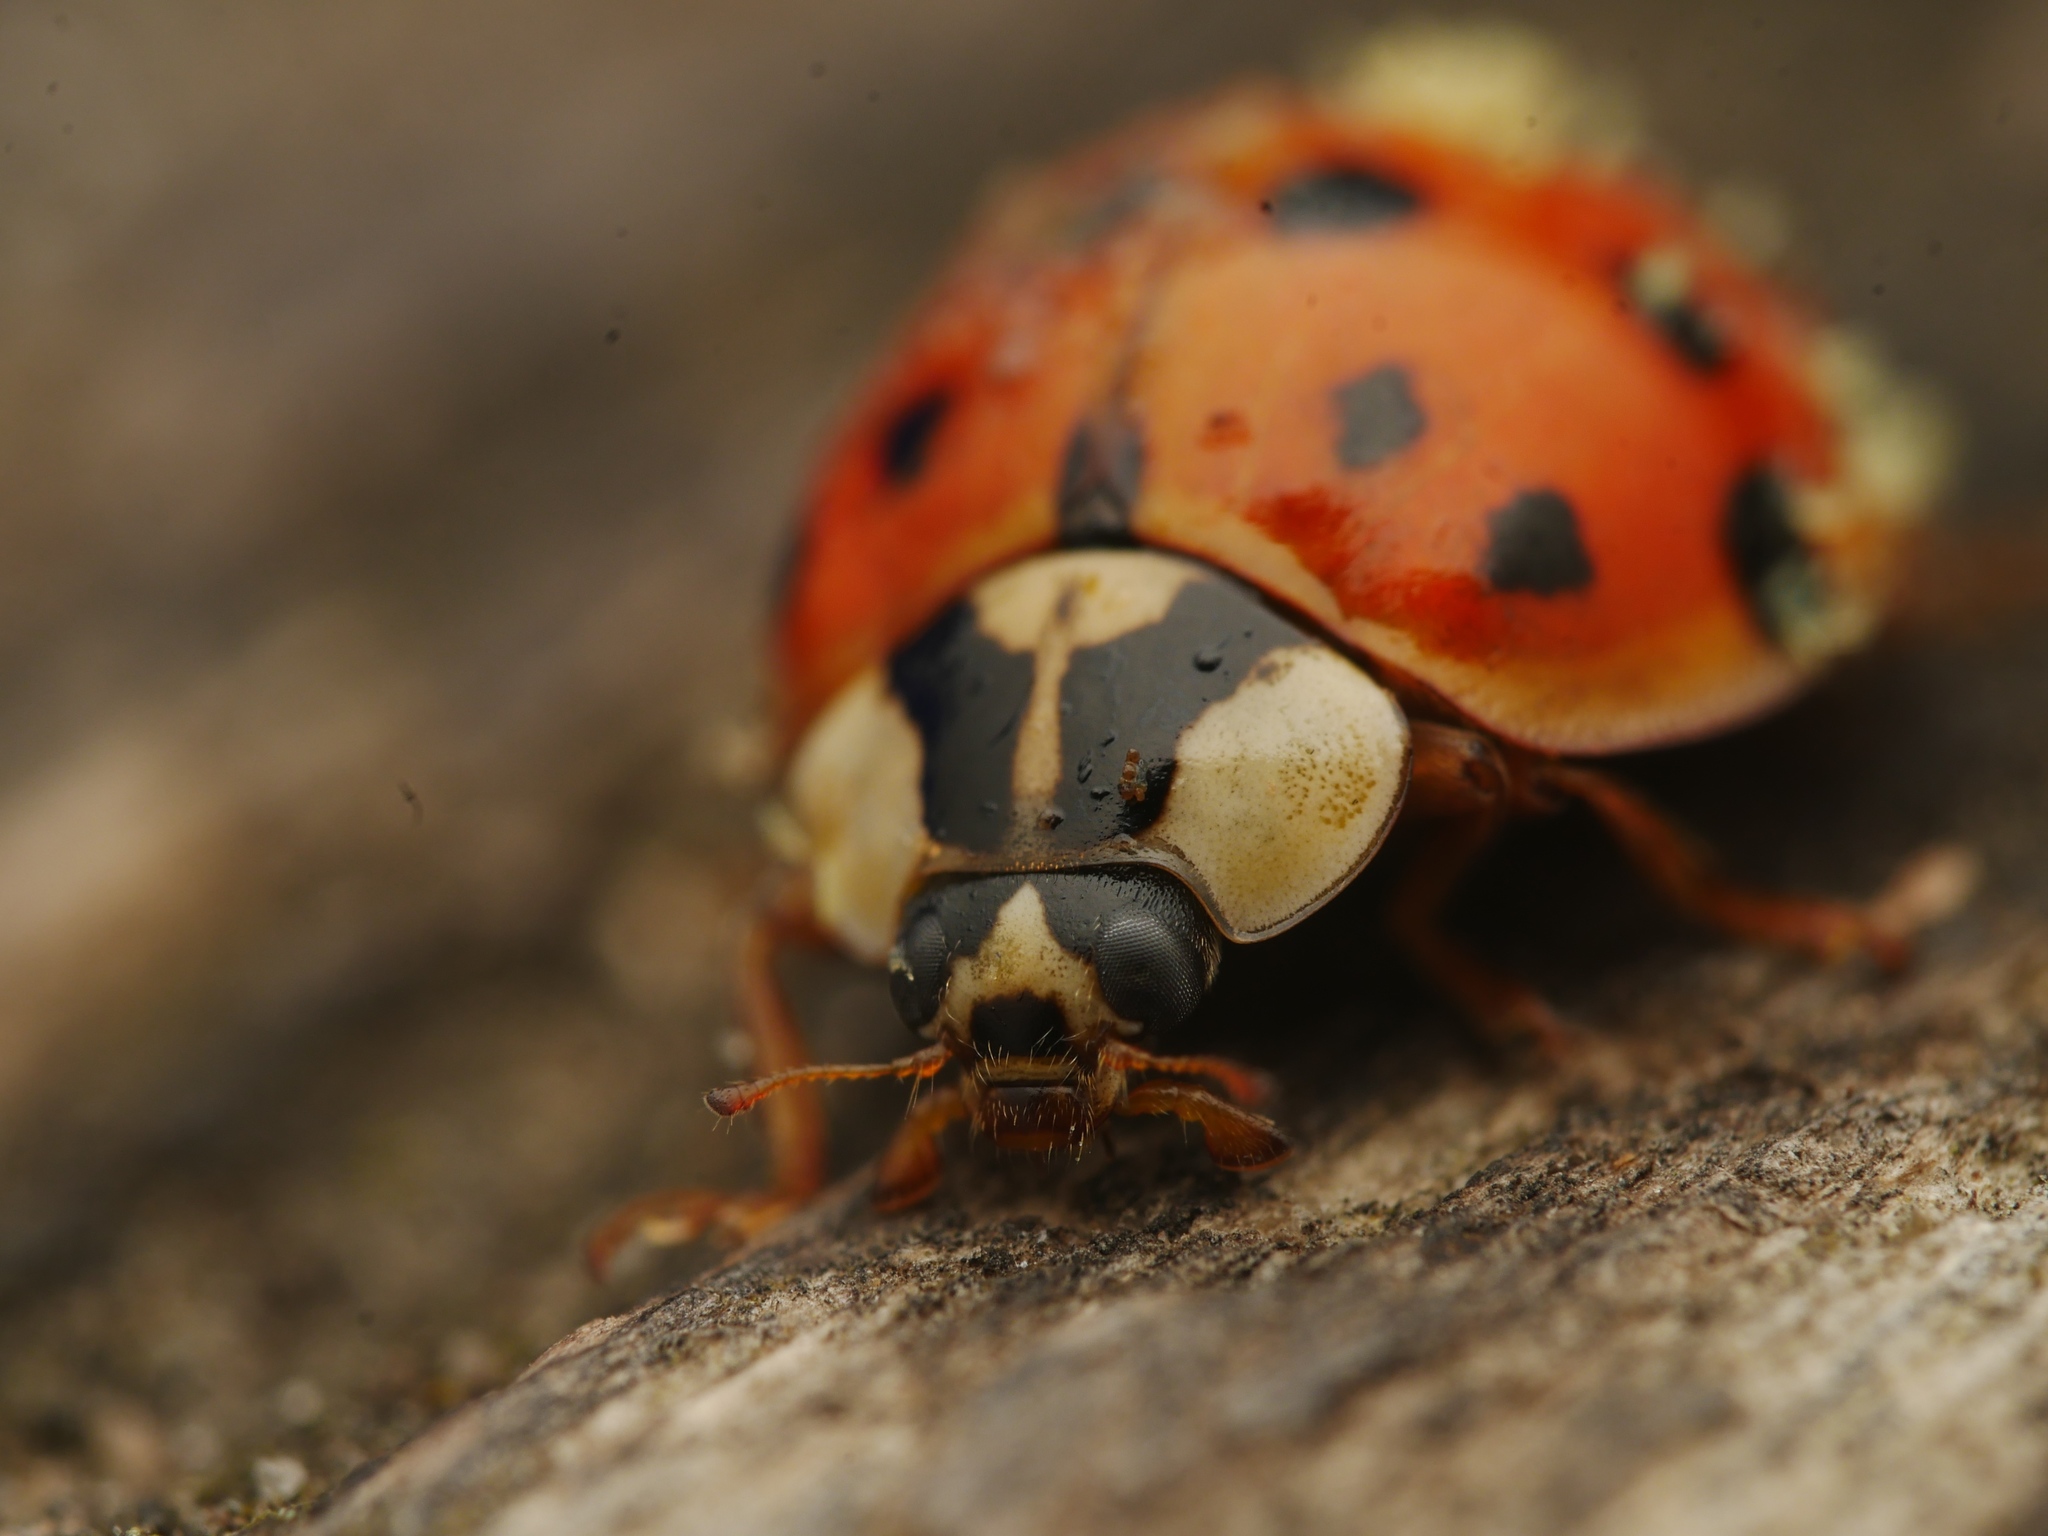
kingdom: Animalia
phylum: Arthropoda
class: Insecta
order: Coleoptera
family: Coccinellidae
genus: Harmonia
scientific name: Harmonia axyridis
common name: Harlequin ladybird
